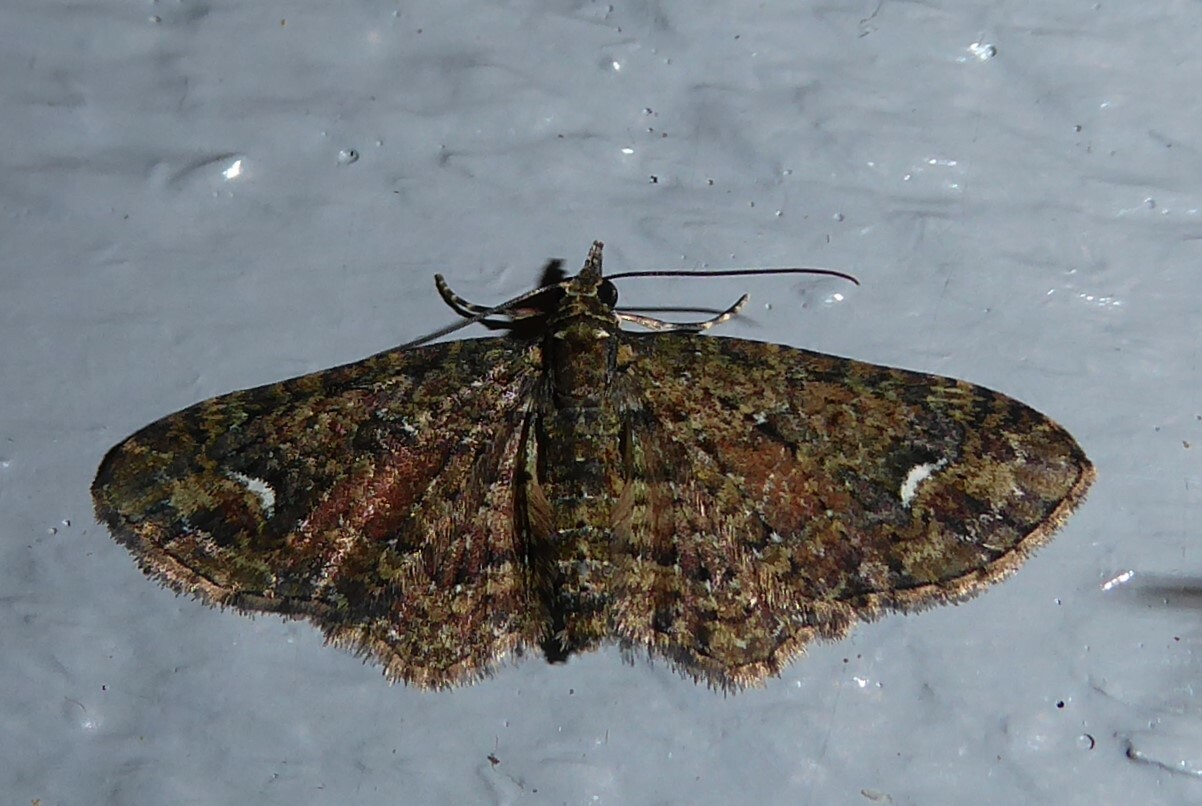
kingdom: Animalia
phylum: Arthropoda
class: Insecta
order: Lepidoptera
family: Geometridae
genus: Pasiphilodes
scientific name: Pasiphilodes testulata
